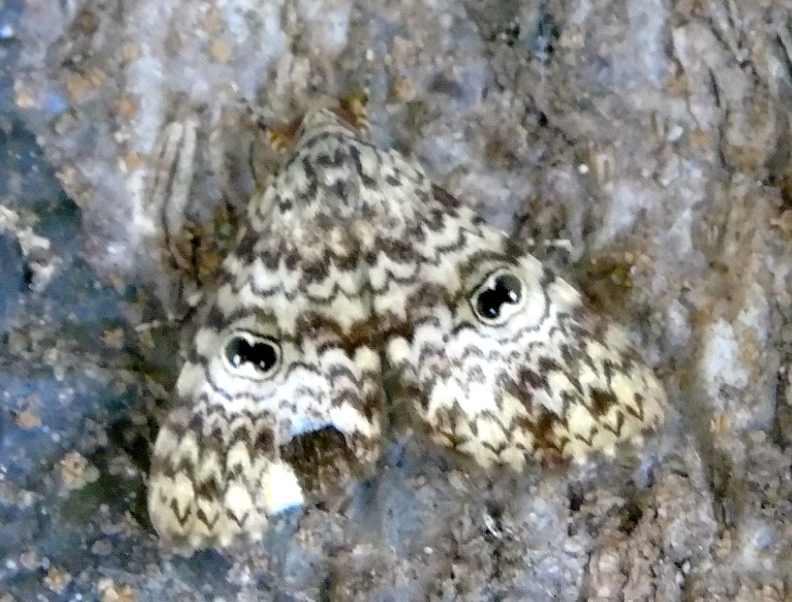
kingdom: Animalia
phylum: Arthropoda
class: Insecta
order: Lepidoptera
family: Erebidae
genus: Glenopteris
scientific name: Glenopteris oculifera
